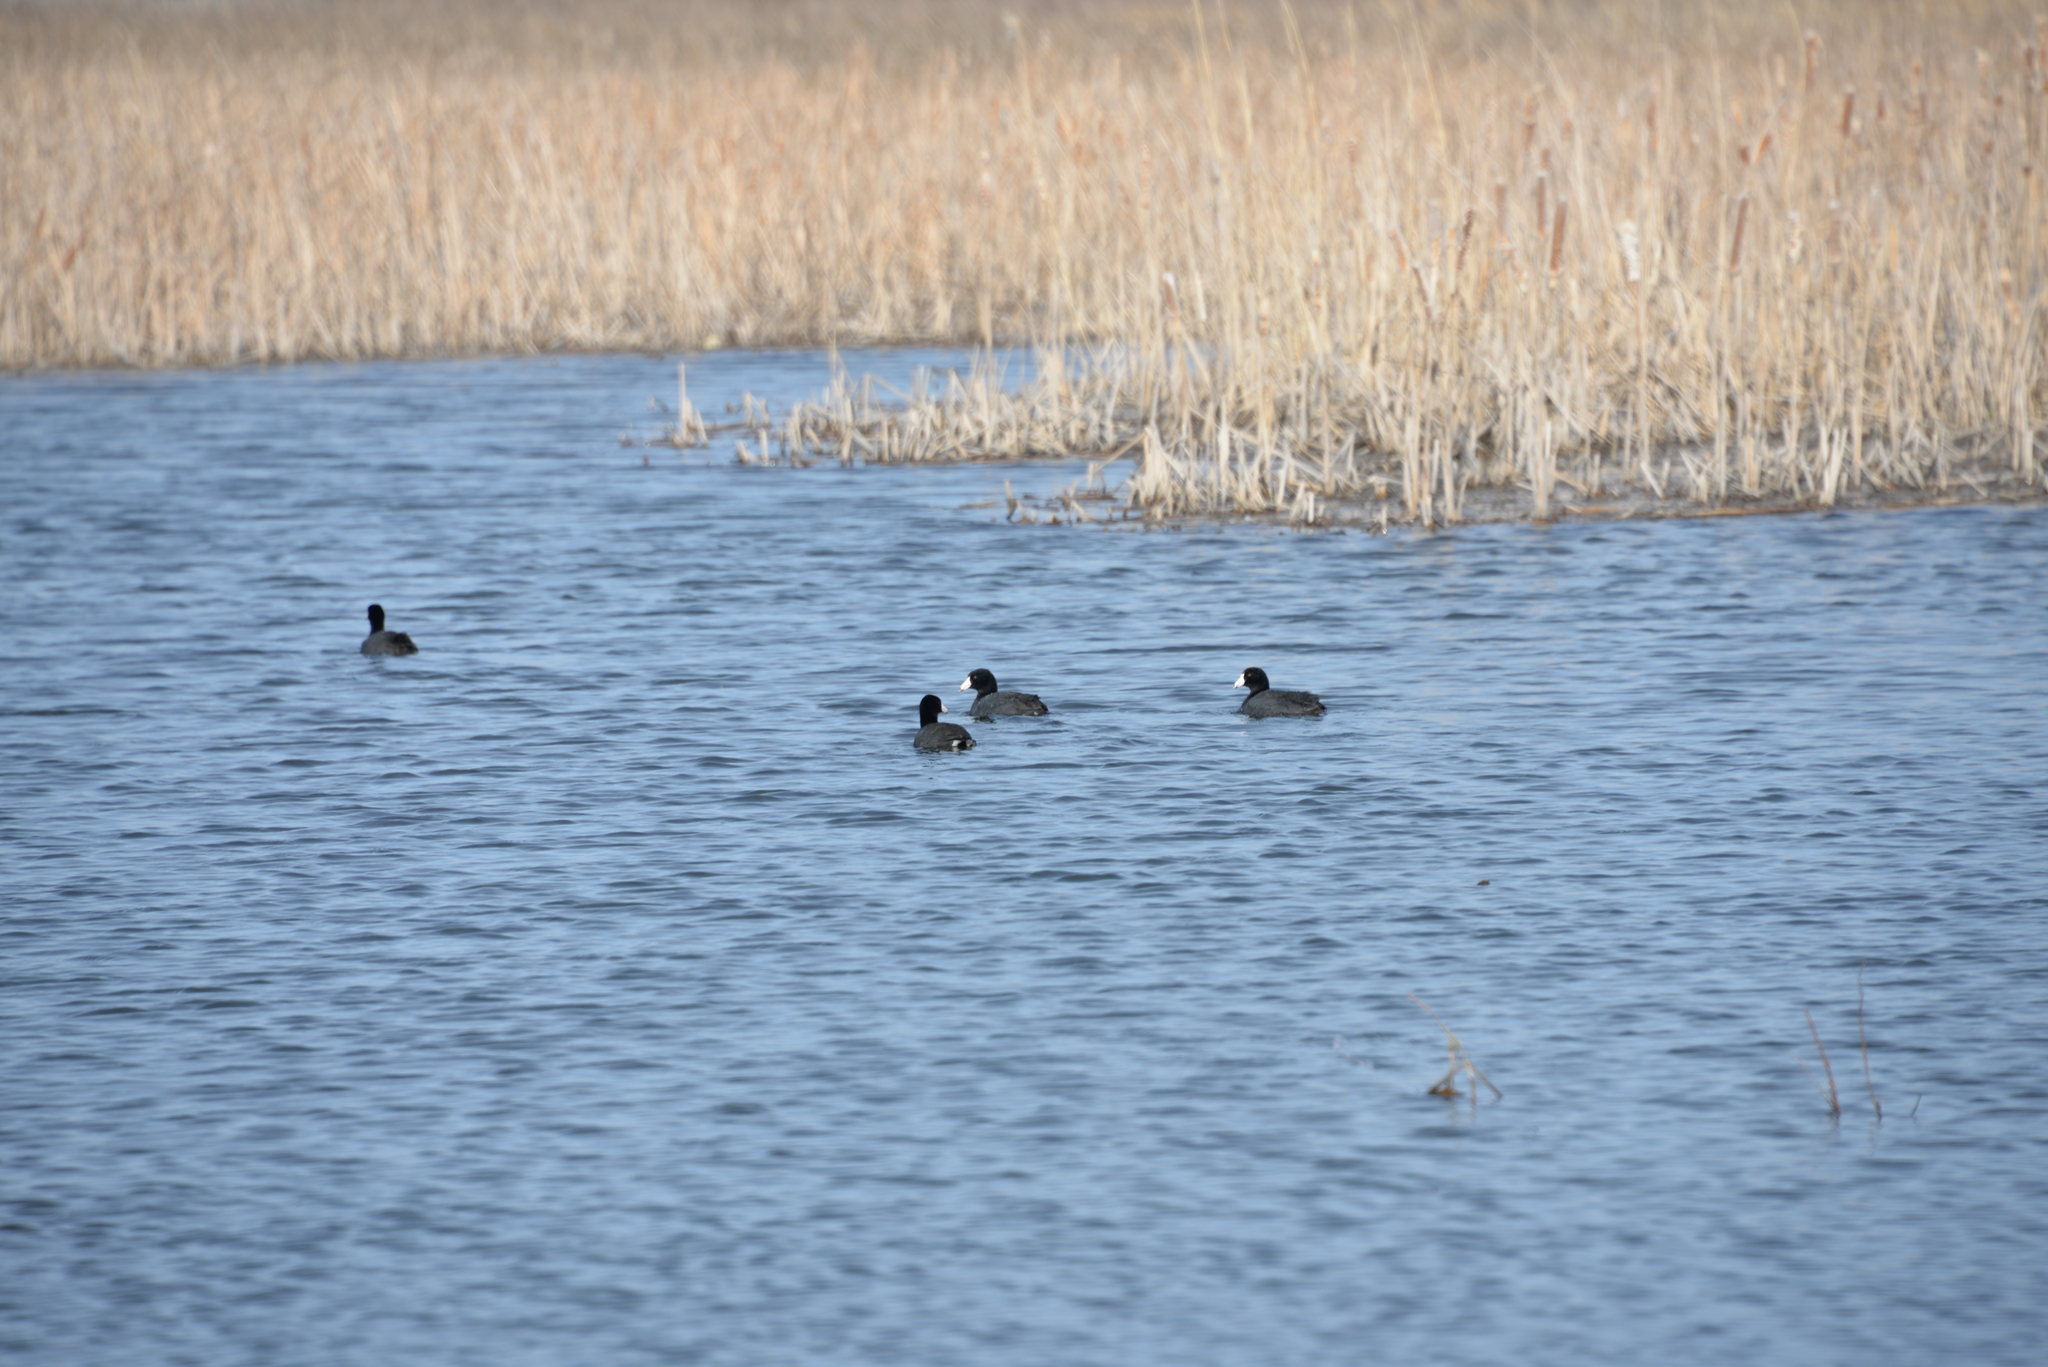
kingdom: Animalia
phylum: Chordata
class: Aves
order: Gruiformes
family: Rallidae
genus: Fulica
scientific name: Fulica americana
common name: American coot
